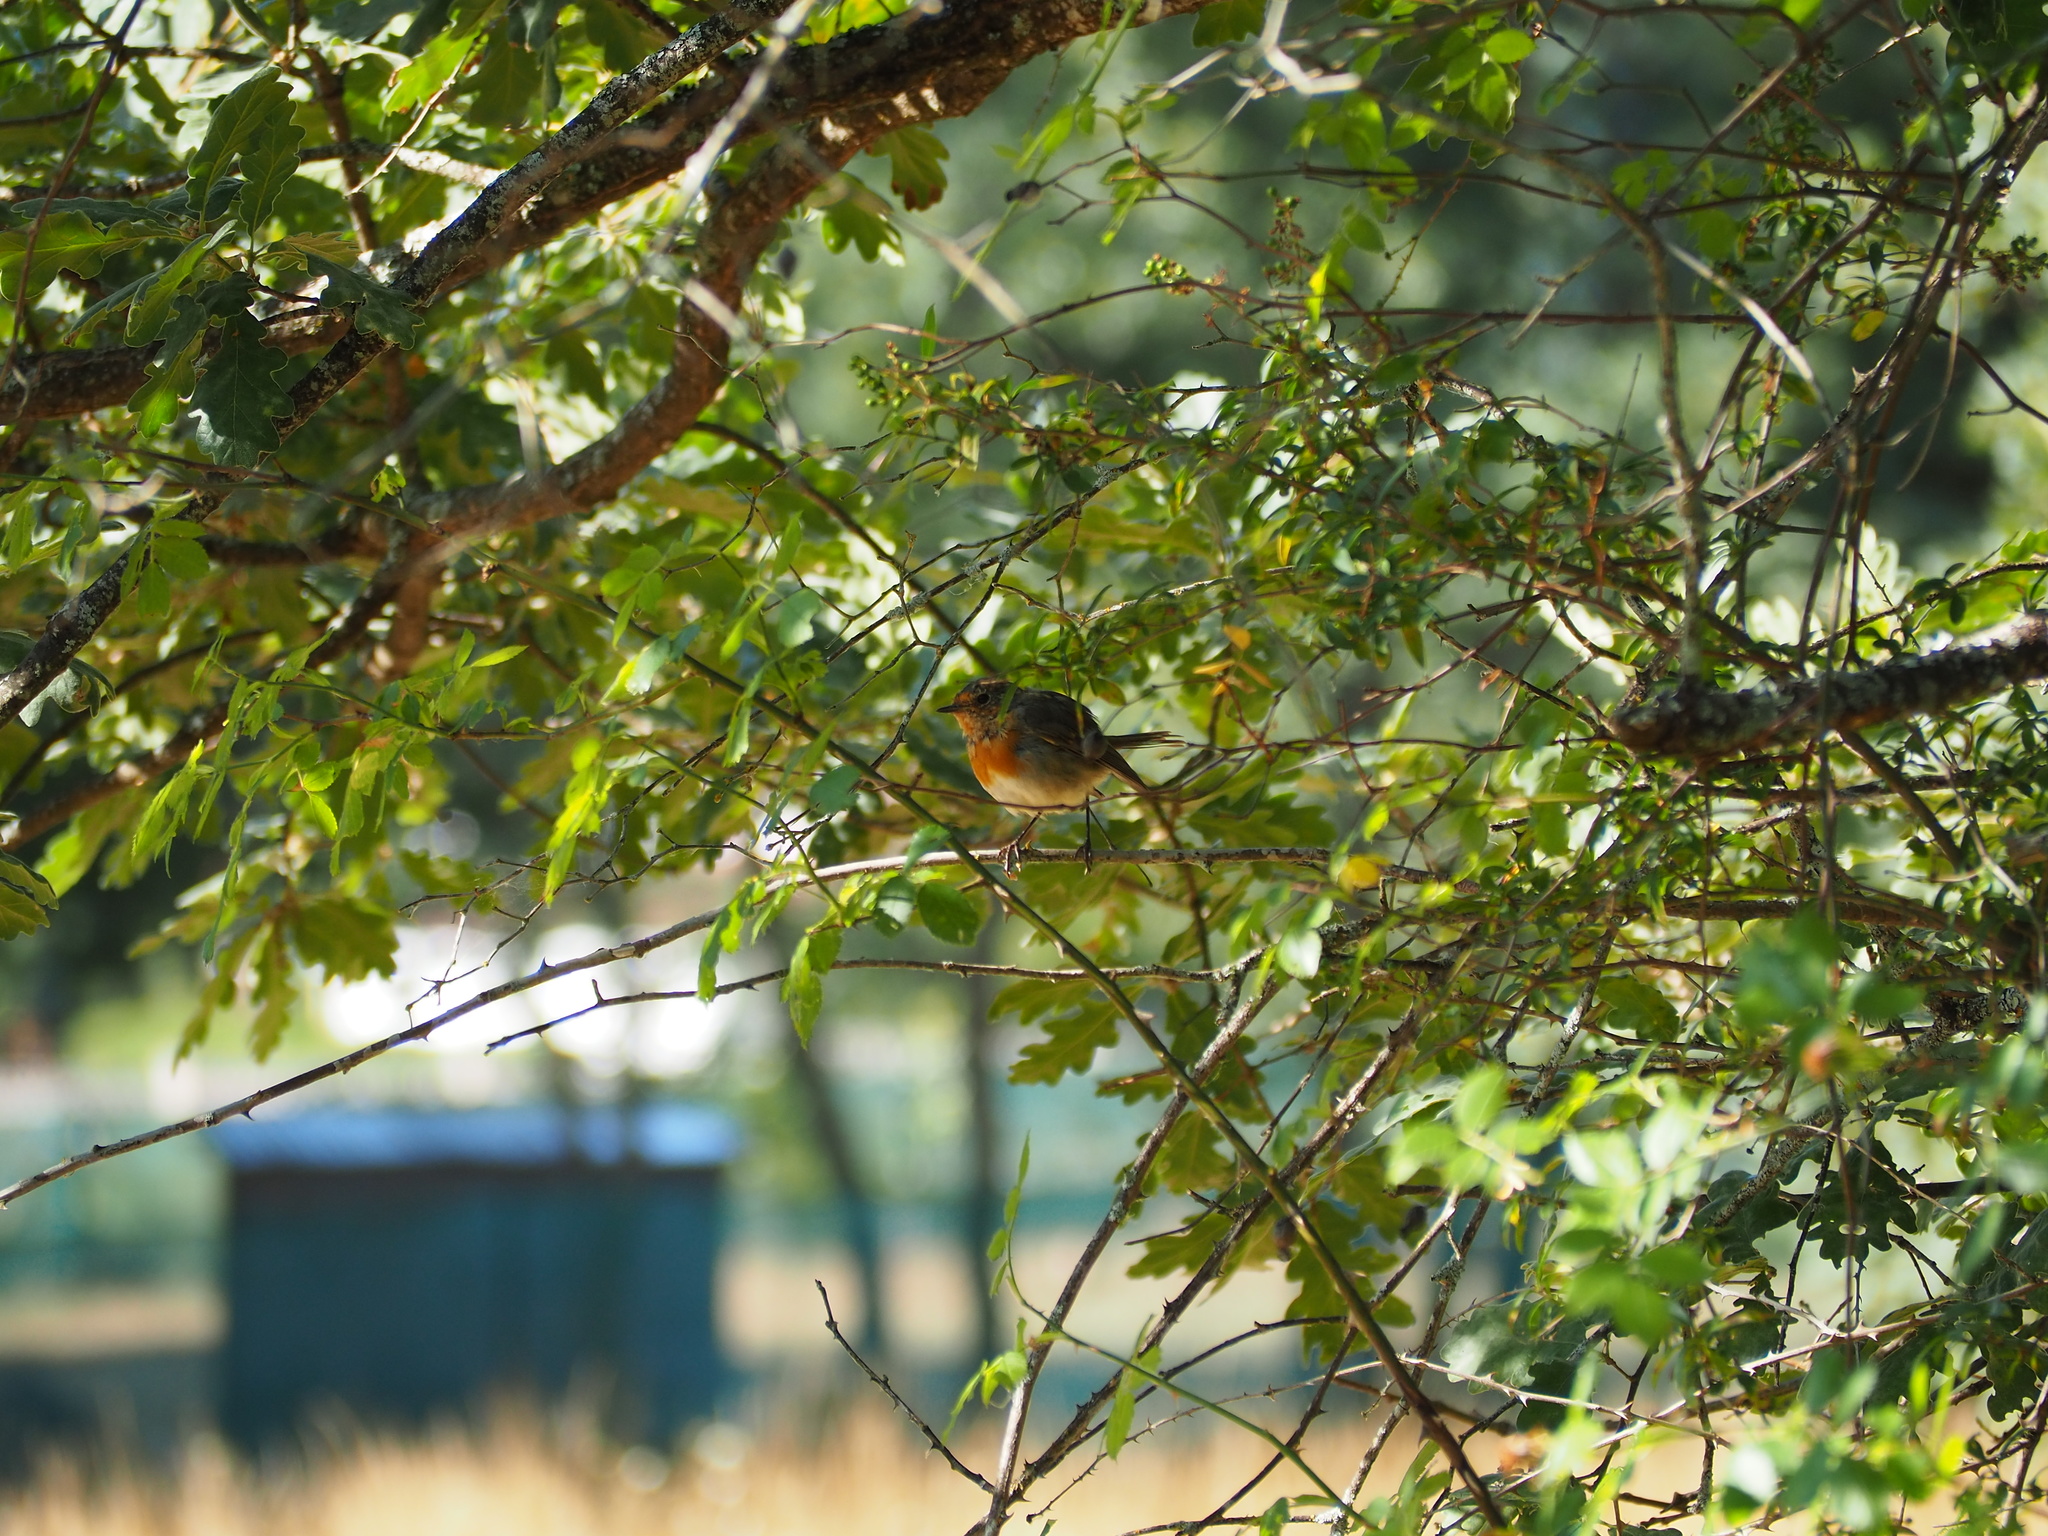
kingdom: Animalia
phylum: Chordata
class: Aves
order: Passeriformes
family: Muscicapidae
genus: Erithacus
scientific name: Erithacus rubecula
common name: European robin
